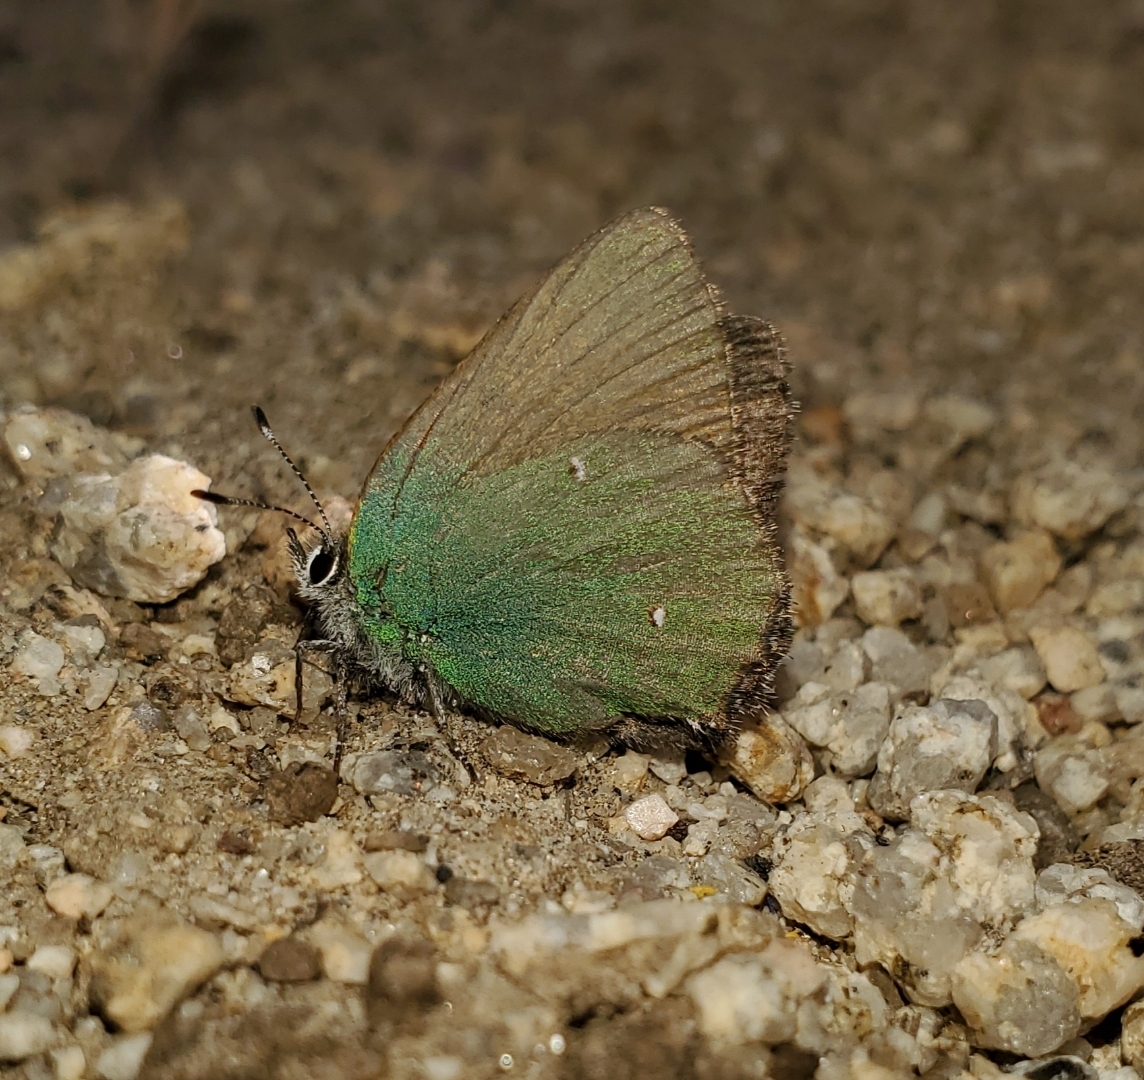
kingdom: Animalia
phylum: Arthropoda
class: Insecta
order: Lepidoptera
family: Lycaenidae
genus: Callophrys
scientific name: Callophrys dumetorum
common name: Bramble hairstreak
